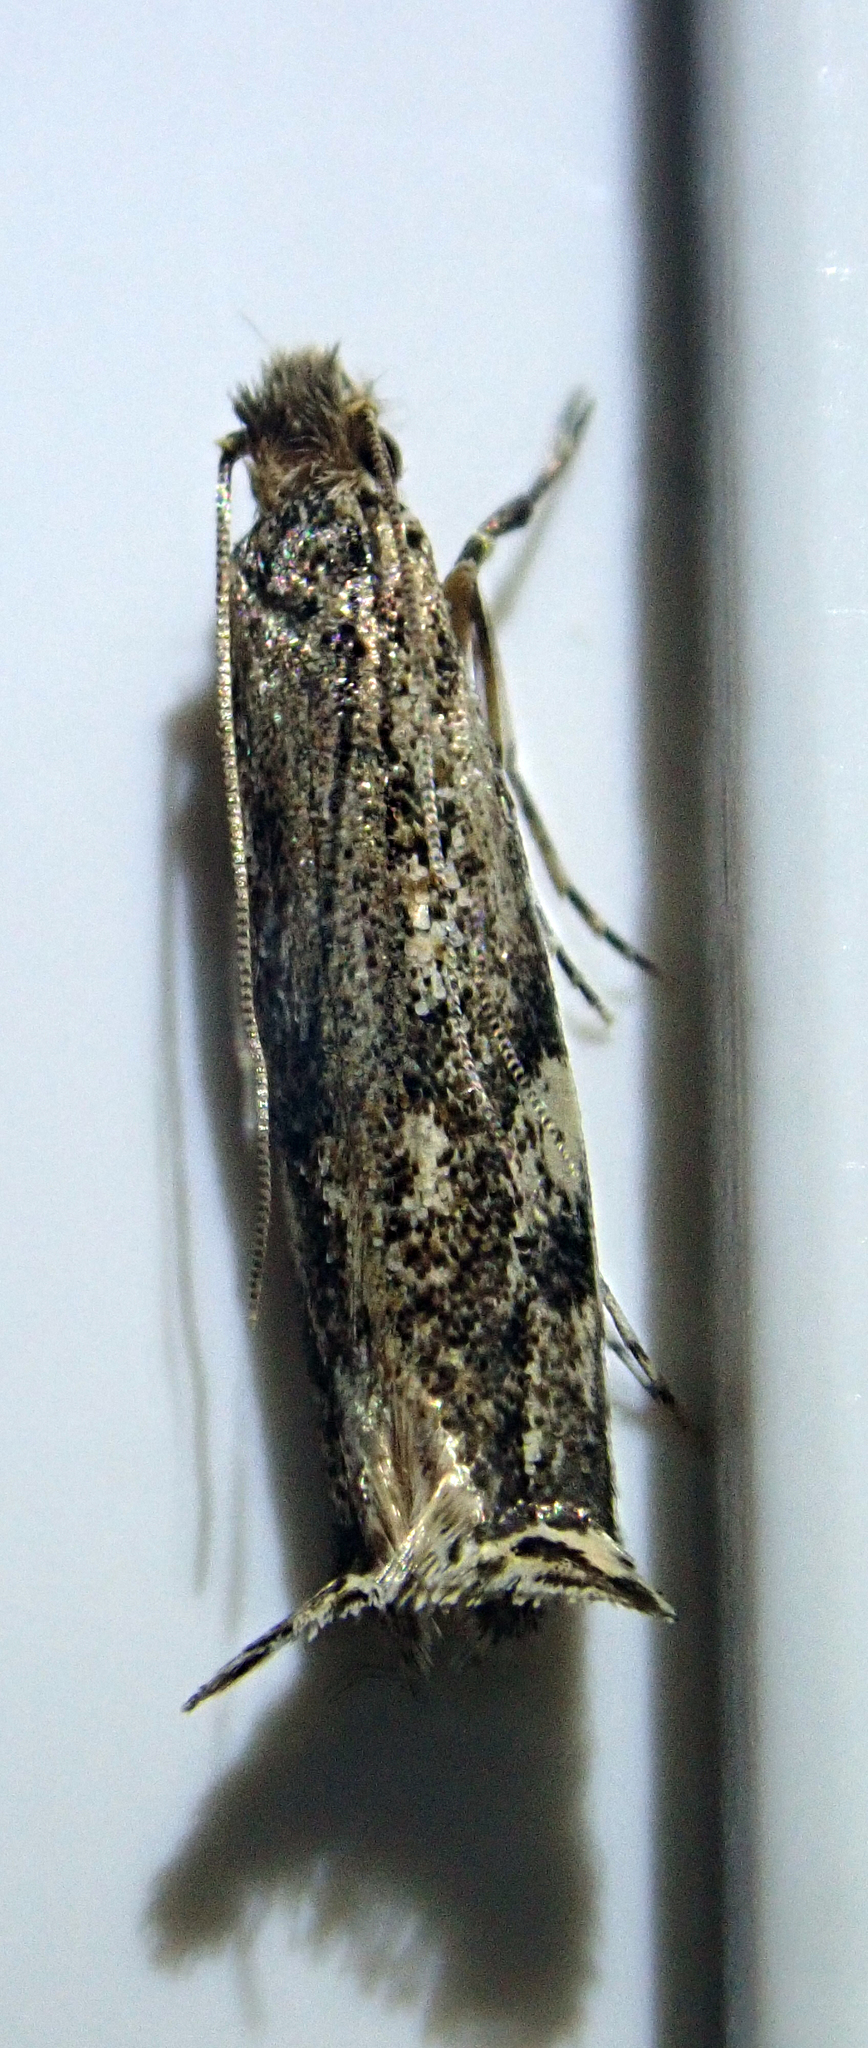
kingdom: Animalia
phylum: Arthropoda
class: Insecta
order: Lepidoptera
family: Tineidae
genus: Erechthias
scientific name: Erechthias acrodina
